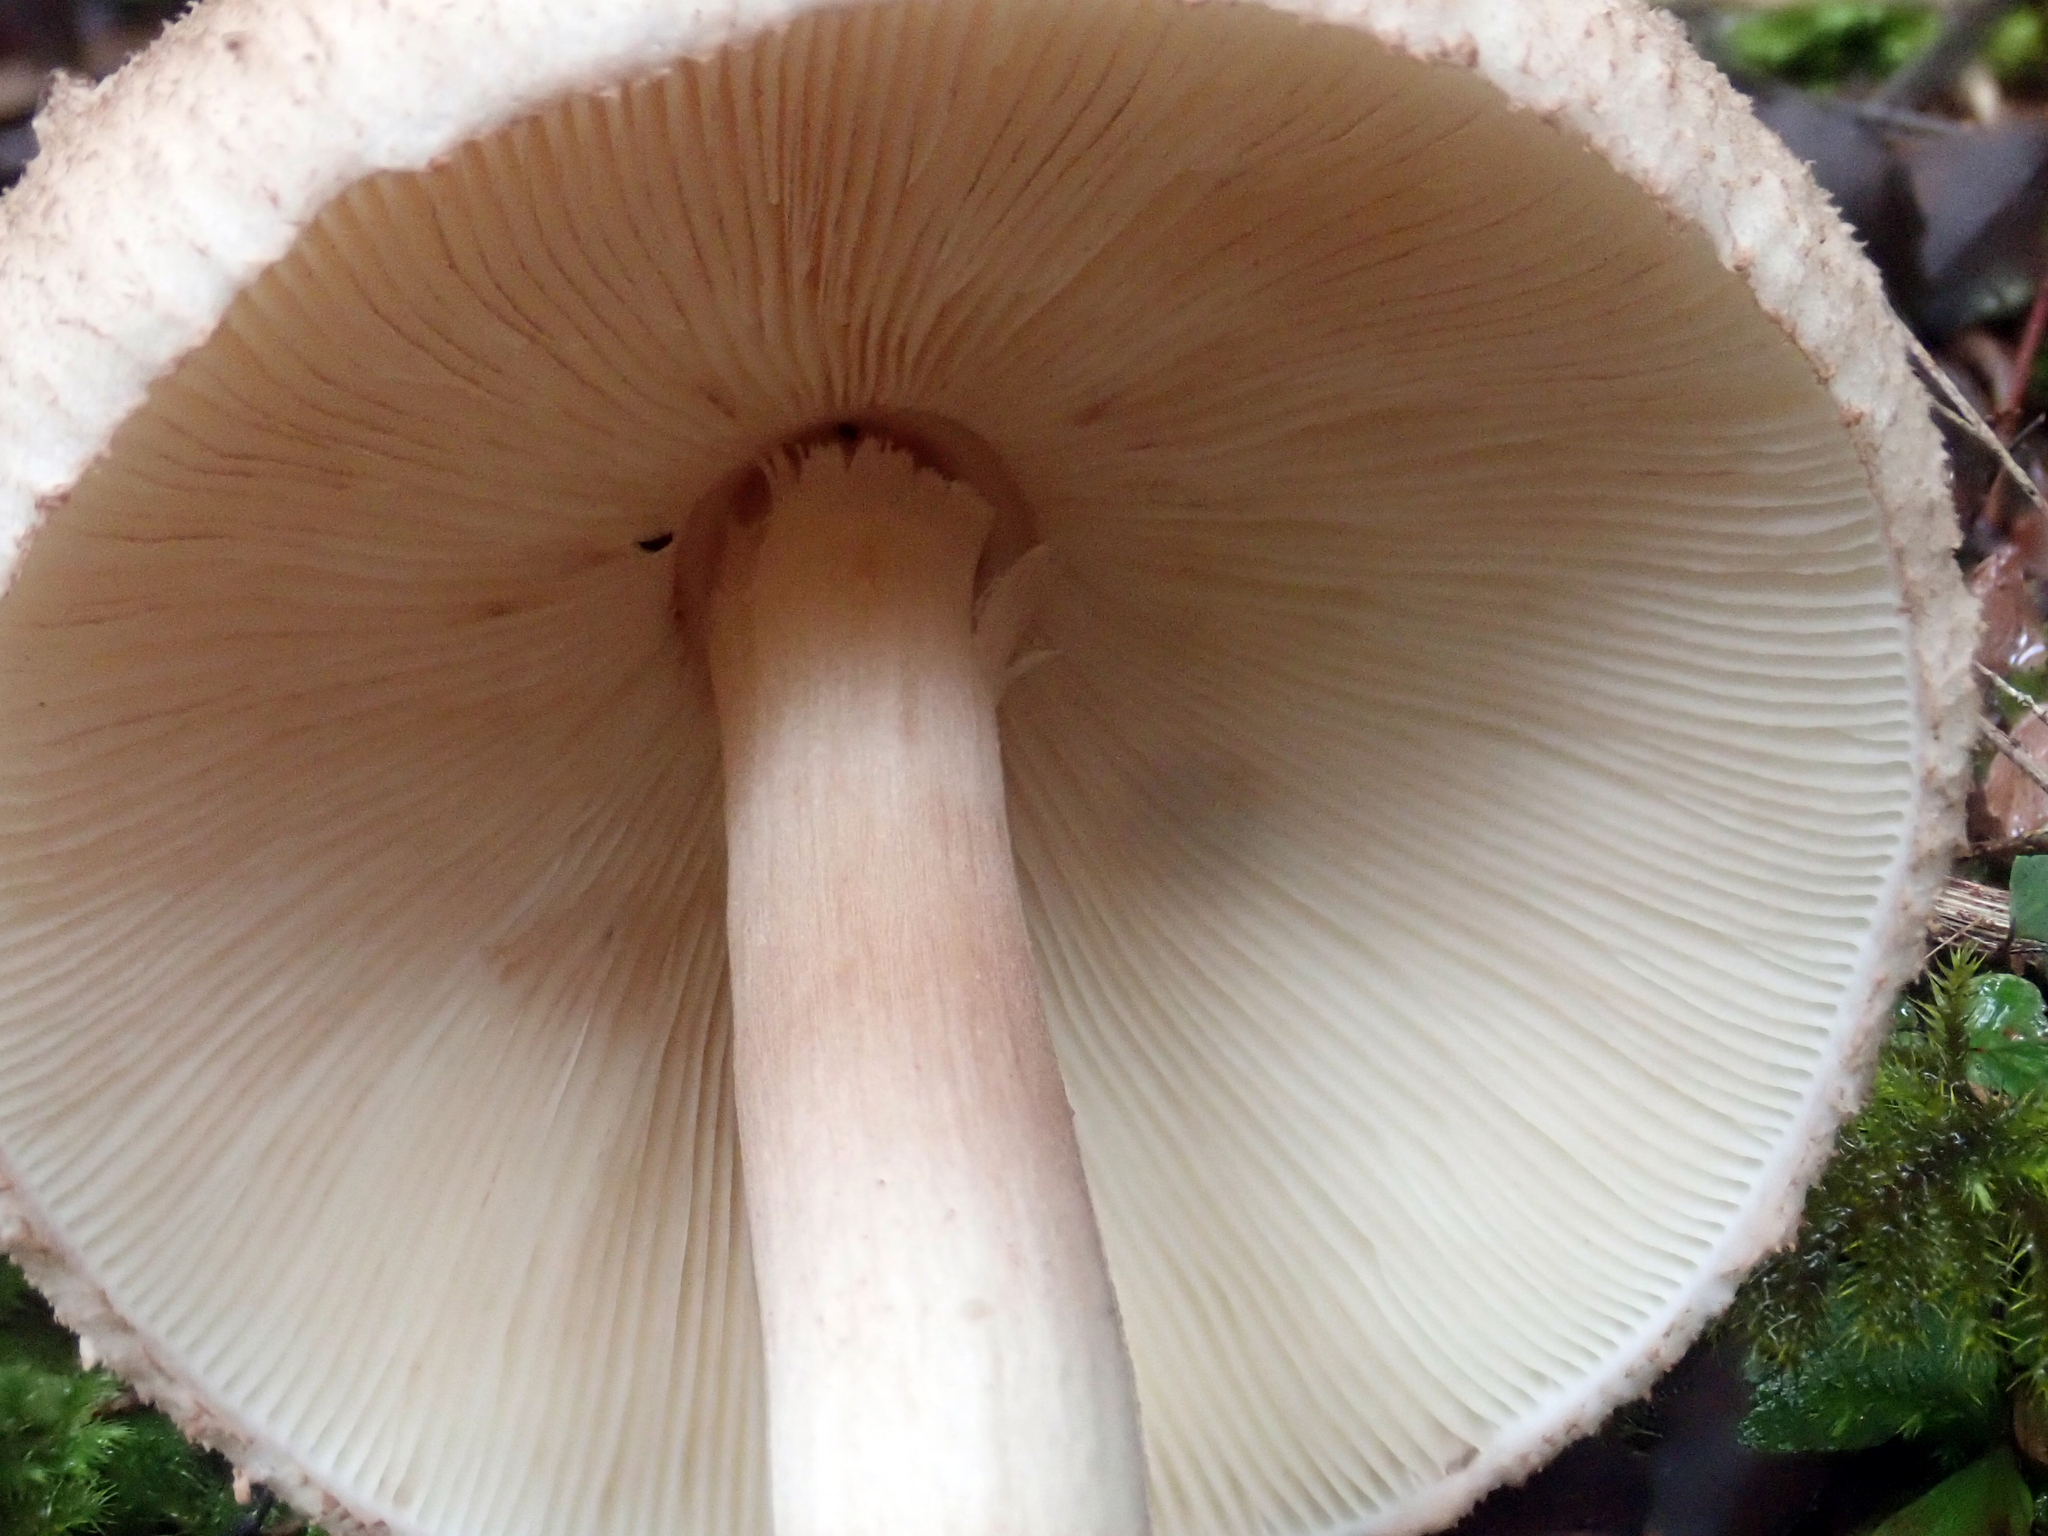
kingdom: Fungi
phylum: Basidiomycota
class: Agaricomycetes
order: Agaricales
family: Agaricaceae
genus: Macrolepiota
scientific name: Macrolepiota clelandii
